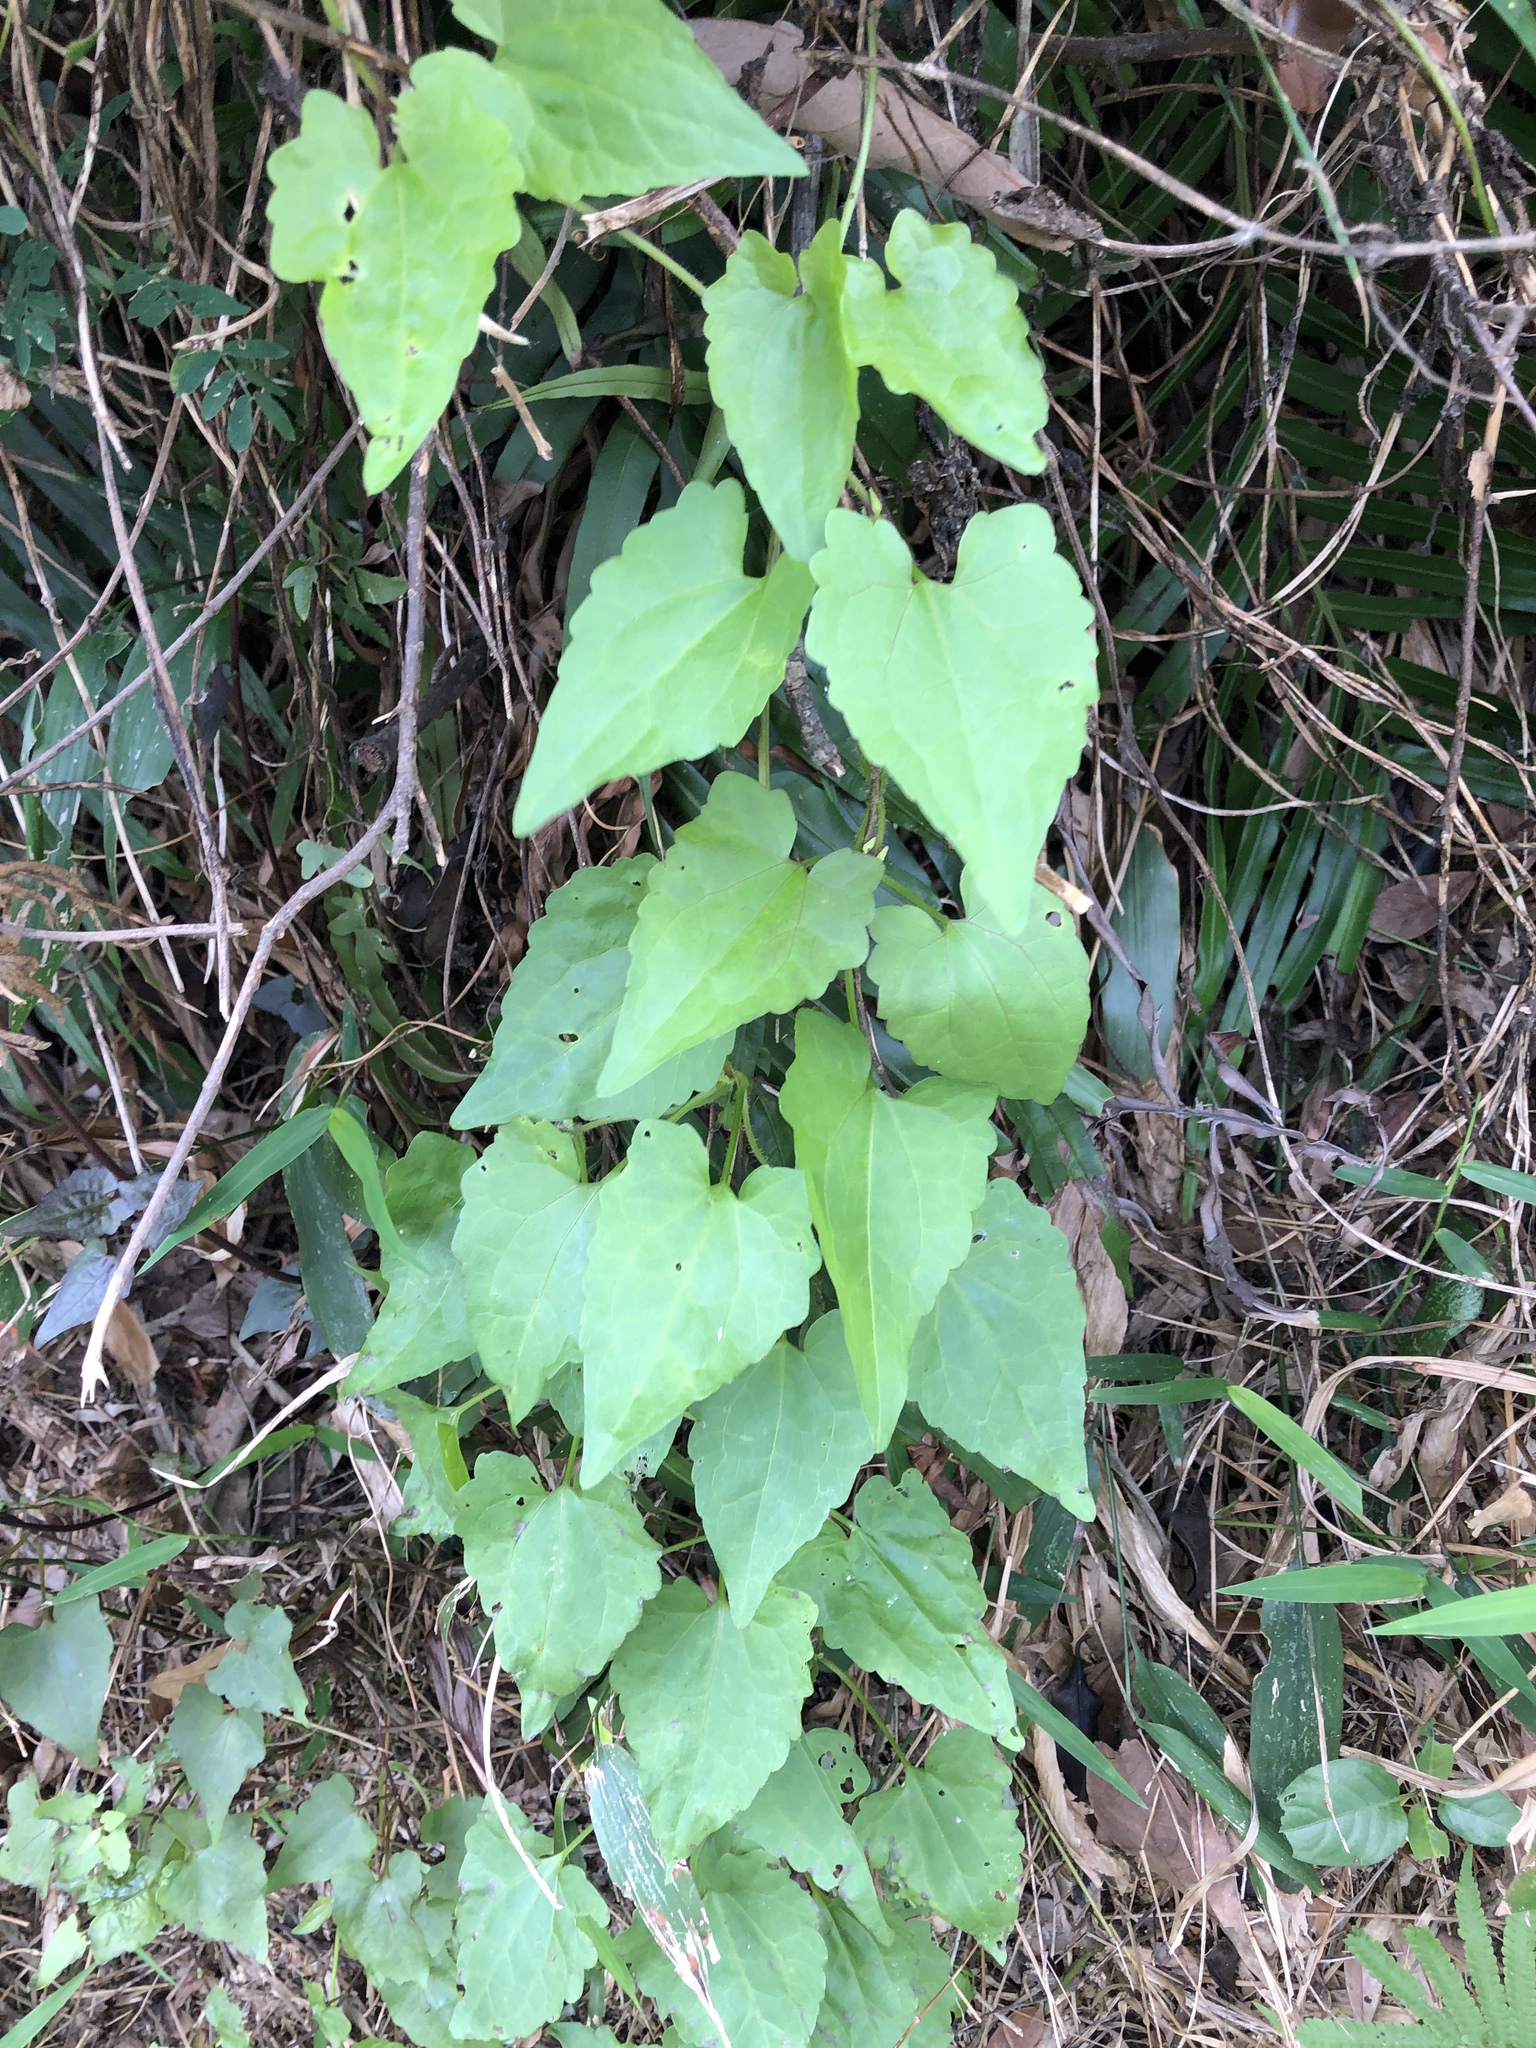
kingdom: Plantae
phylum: Tracheophyta
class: Magnoliopsida
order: Asterales
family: Asteraceae
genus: Mikania
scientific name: Mikania micrantha
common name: Mile-a-minute
